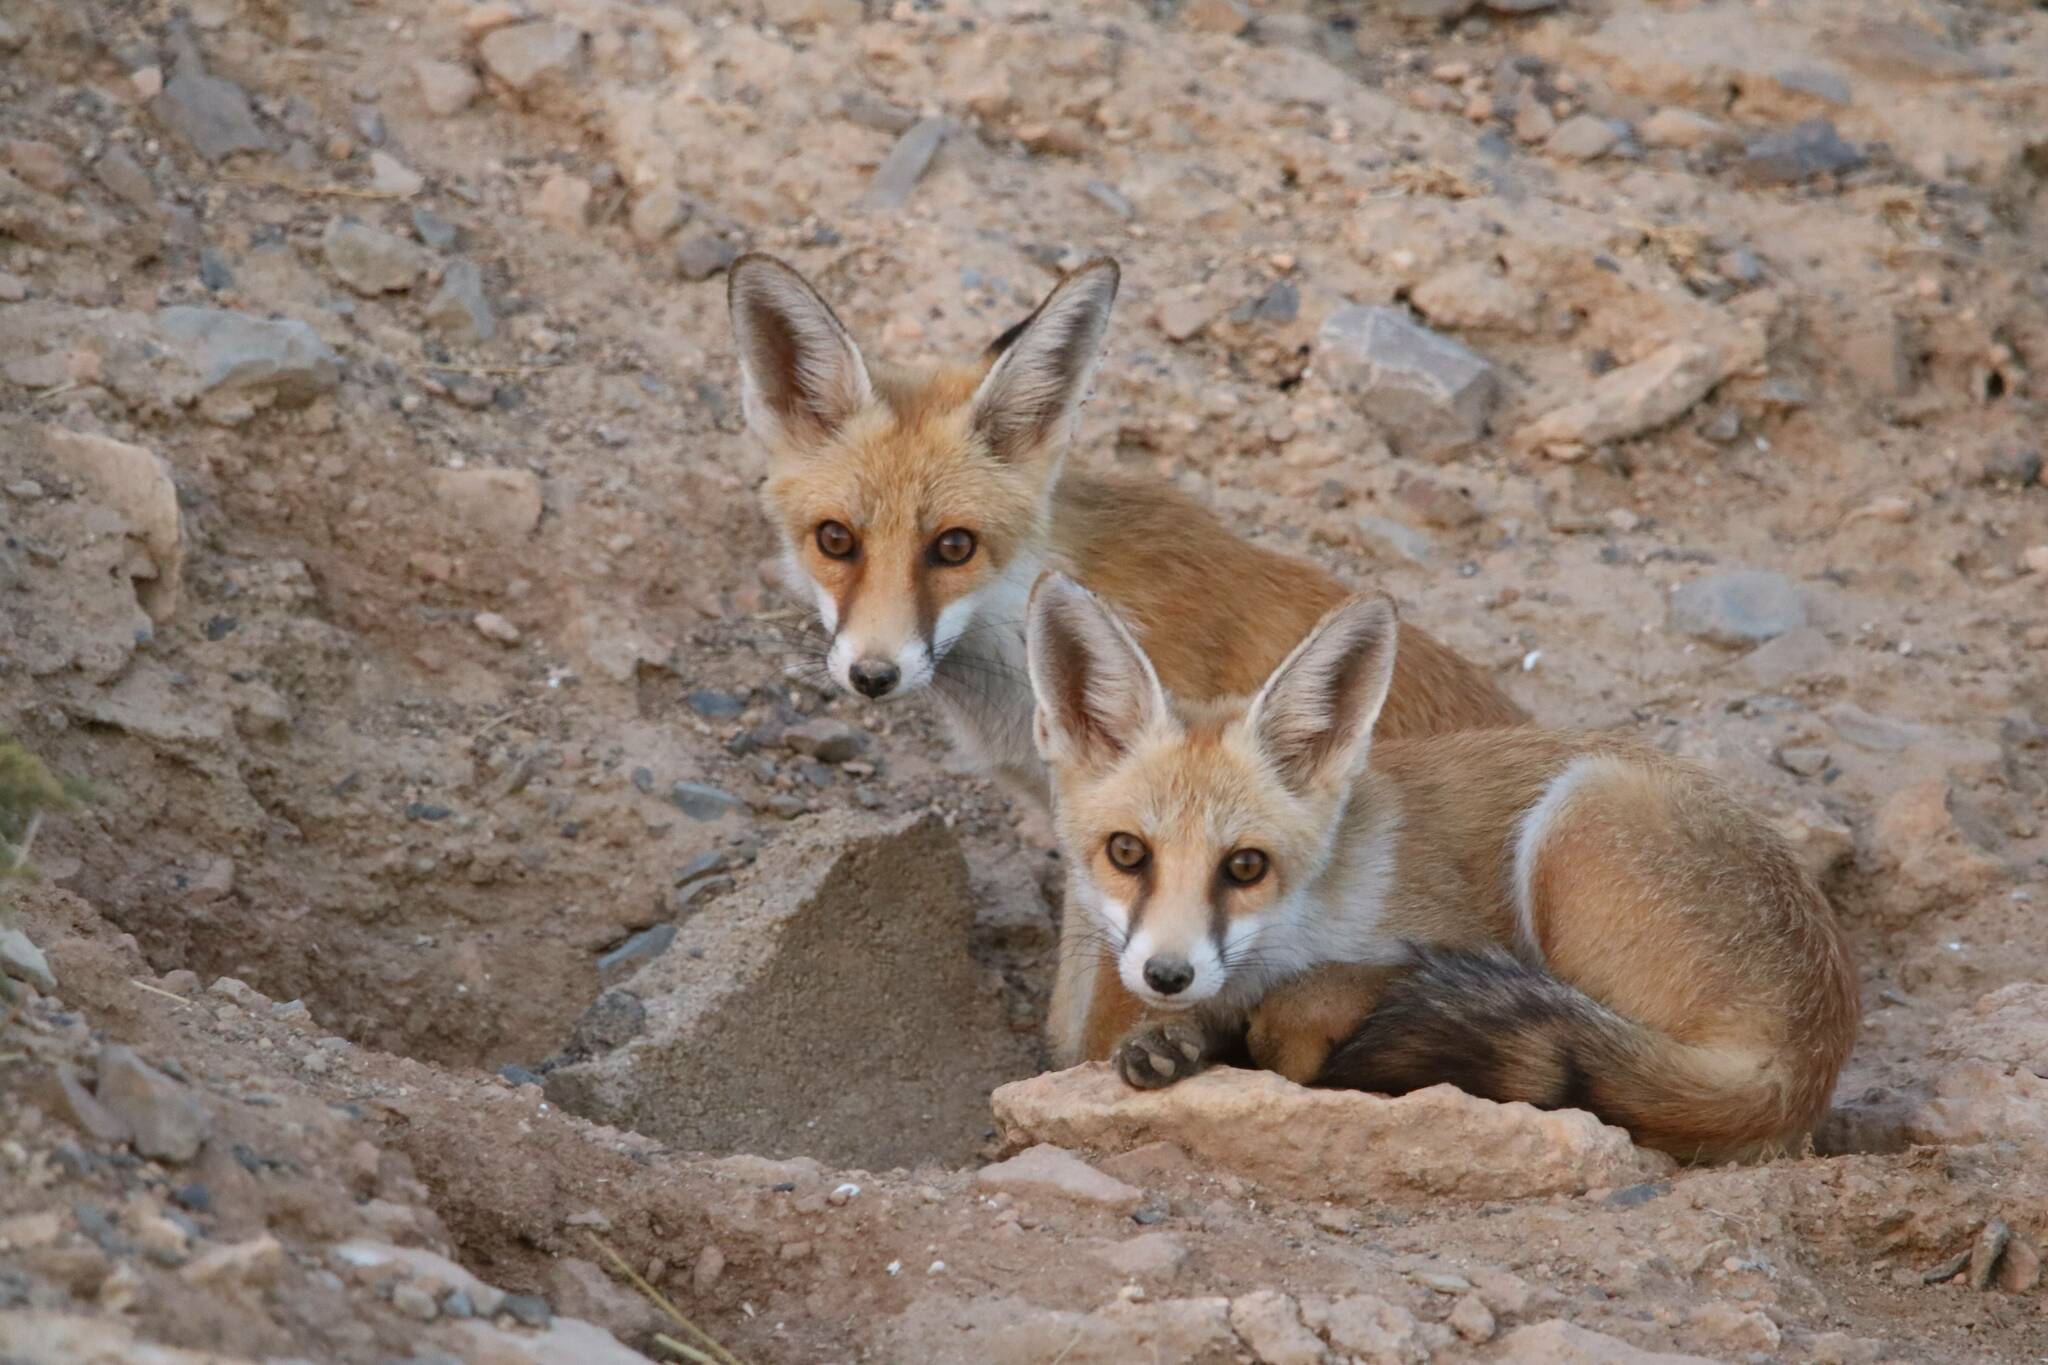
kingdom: Animalia
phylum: Chordata
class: Mammalia
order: Carnivora
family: Canidae
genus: Vulpes
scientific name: Vulpes vulpes
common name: Red fox
